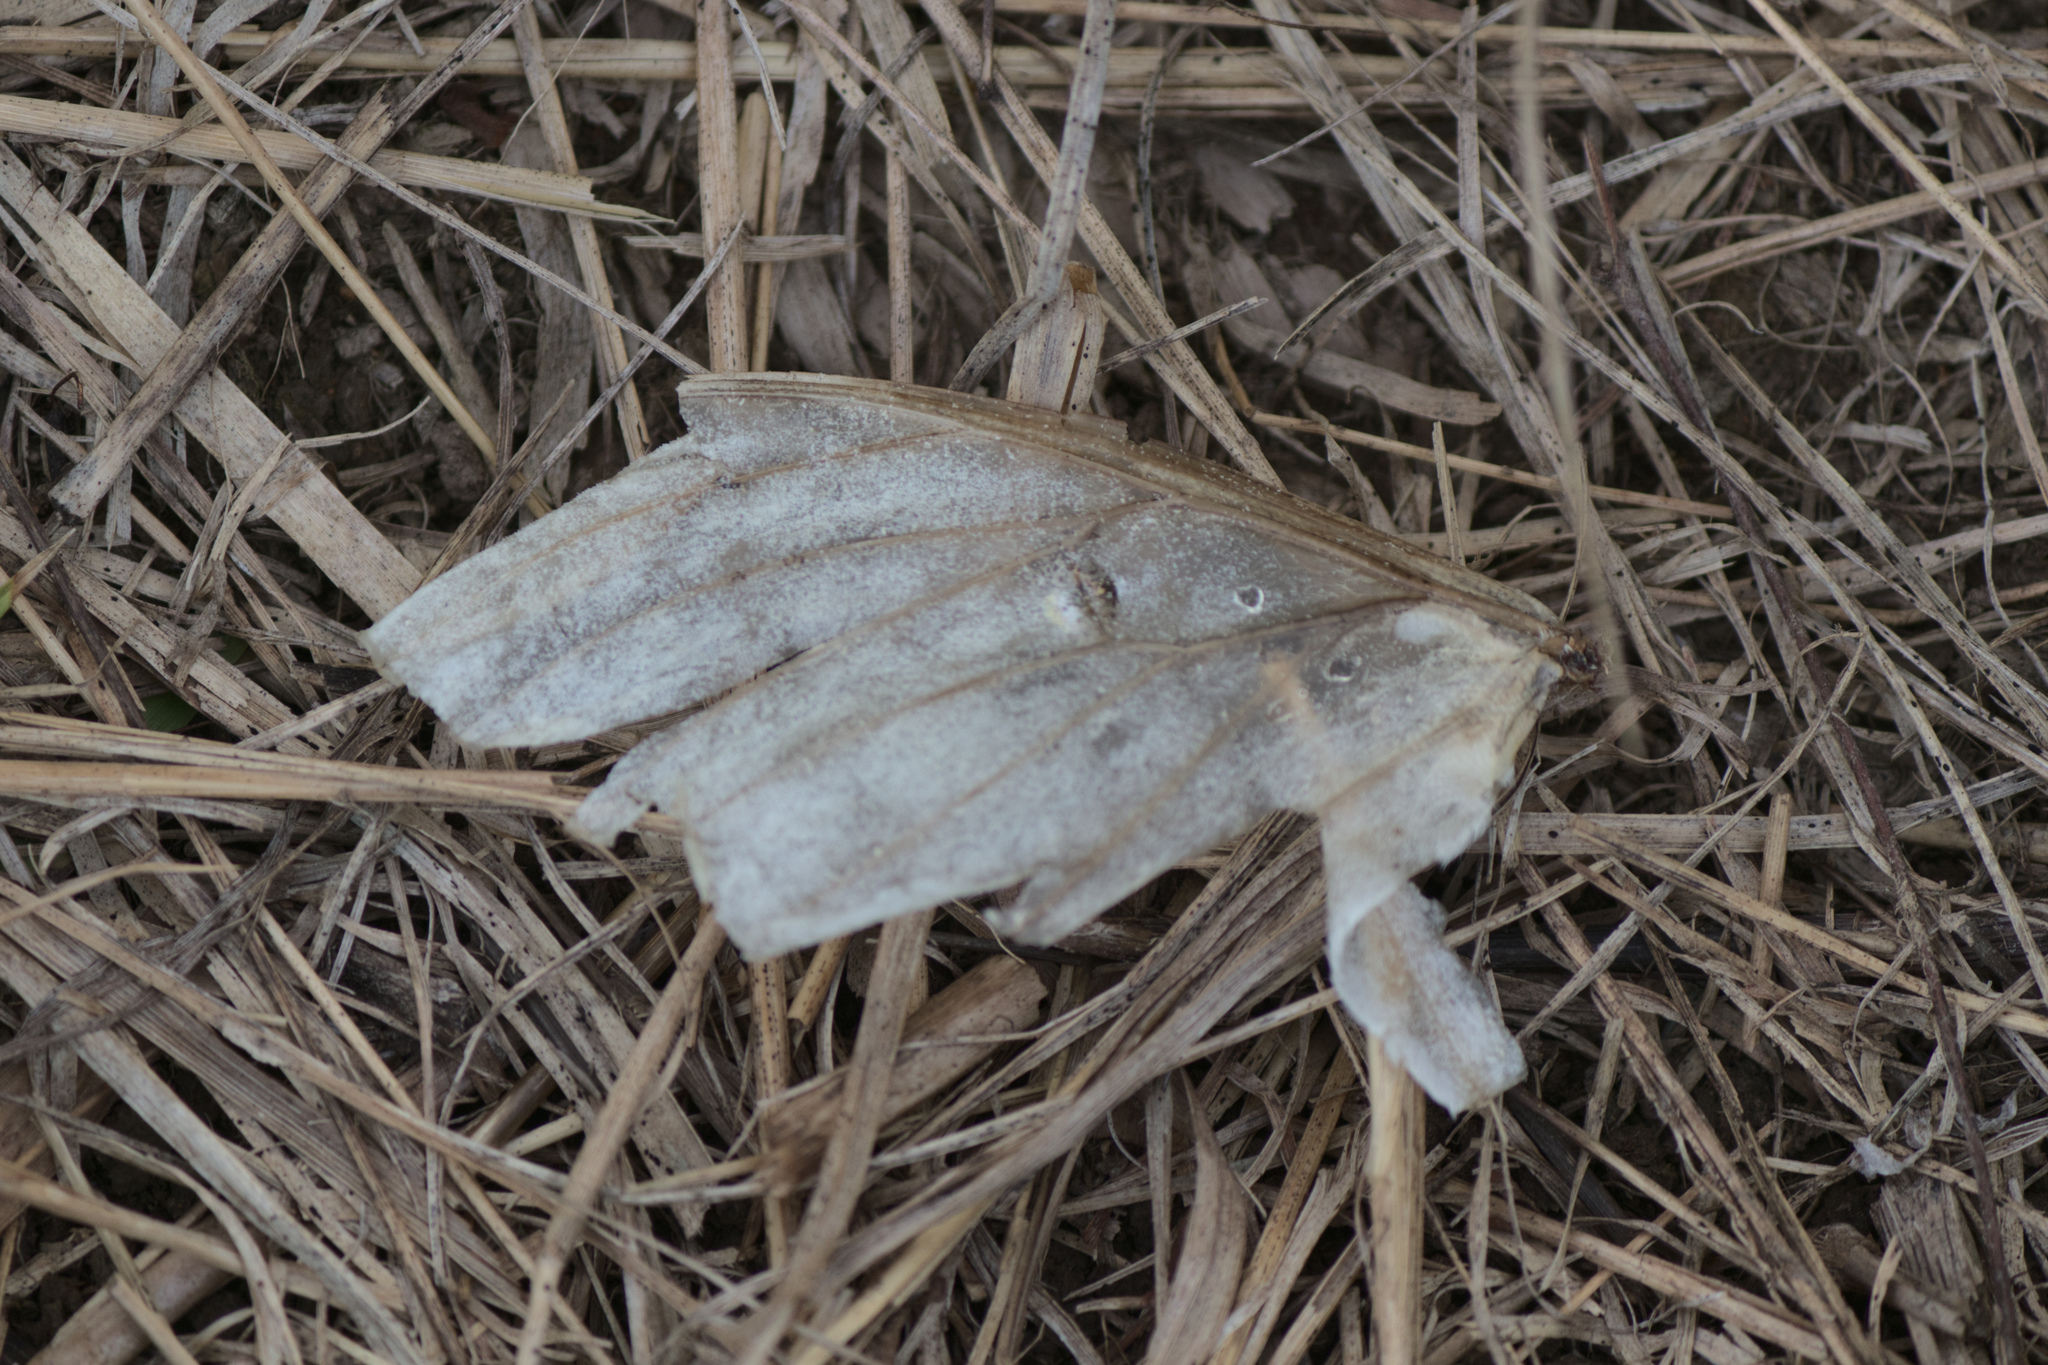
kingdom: Animalia
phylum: Arthropoda
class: Insecta
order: Lepidoptera
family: Saturniidae
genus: Actias
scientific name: Actias luna
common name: Luna moth
